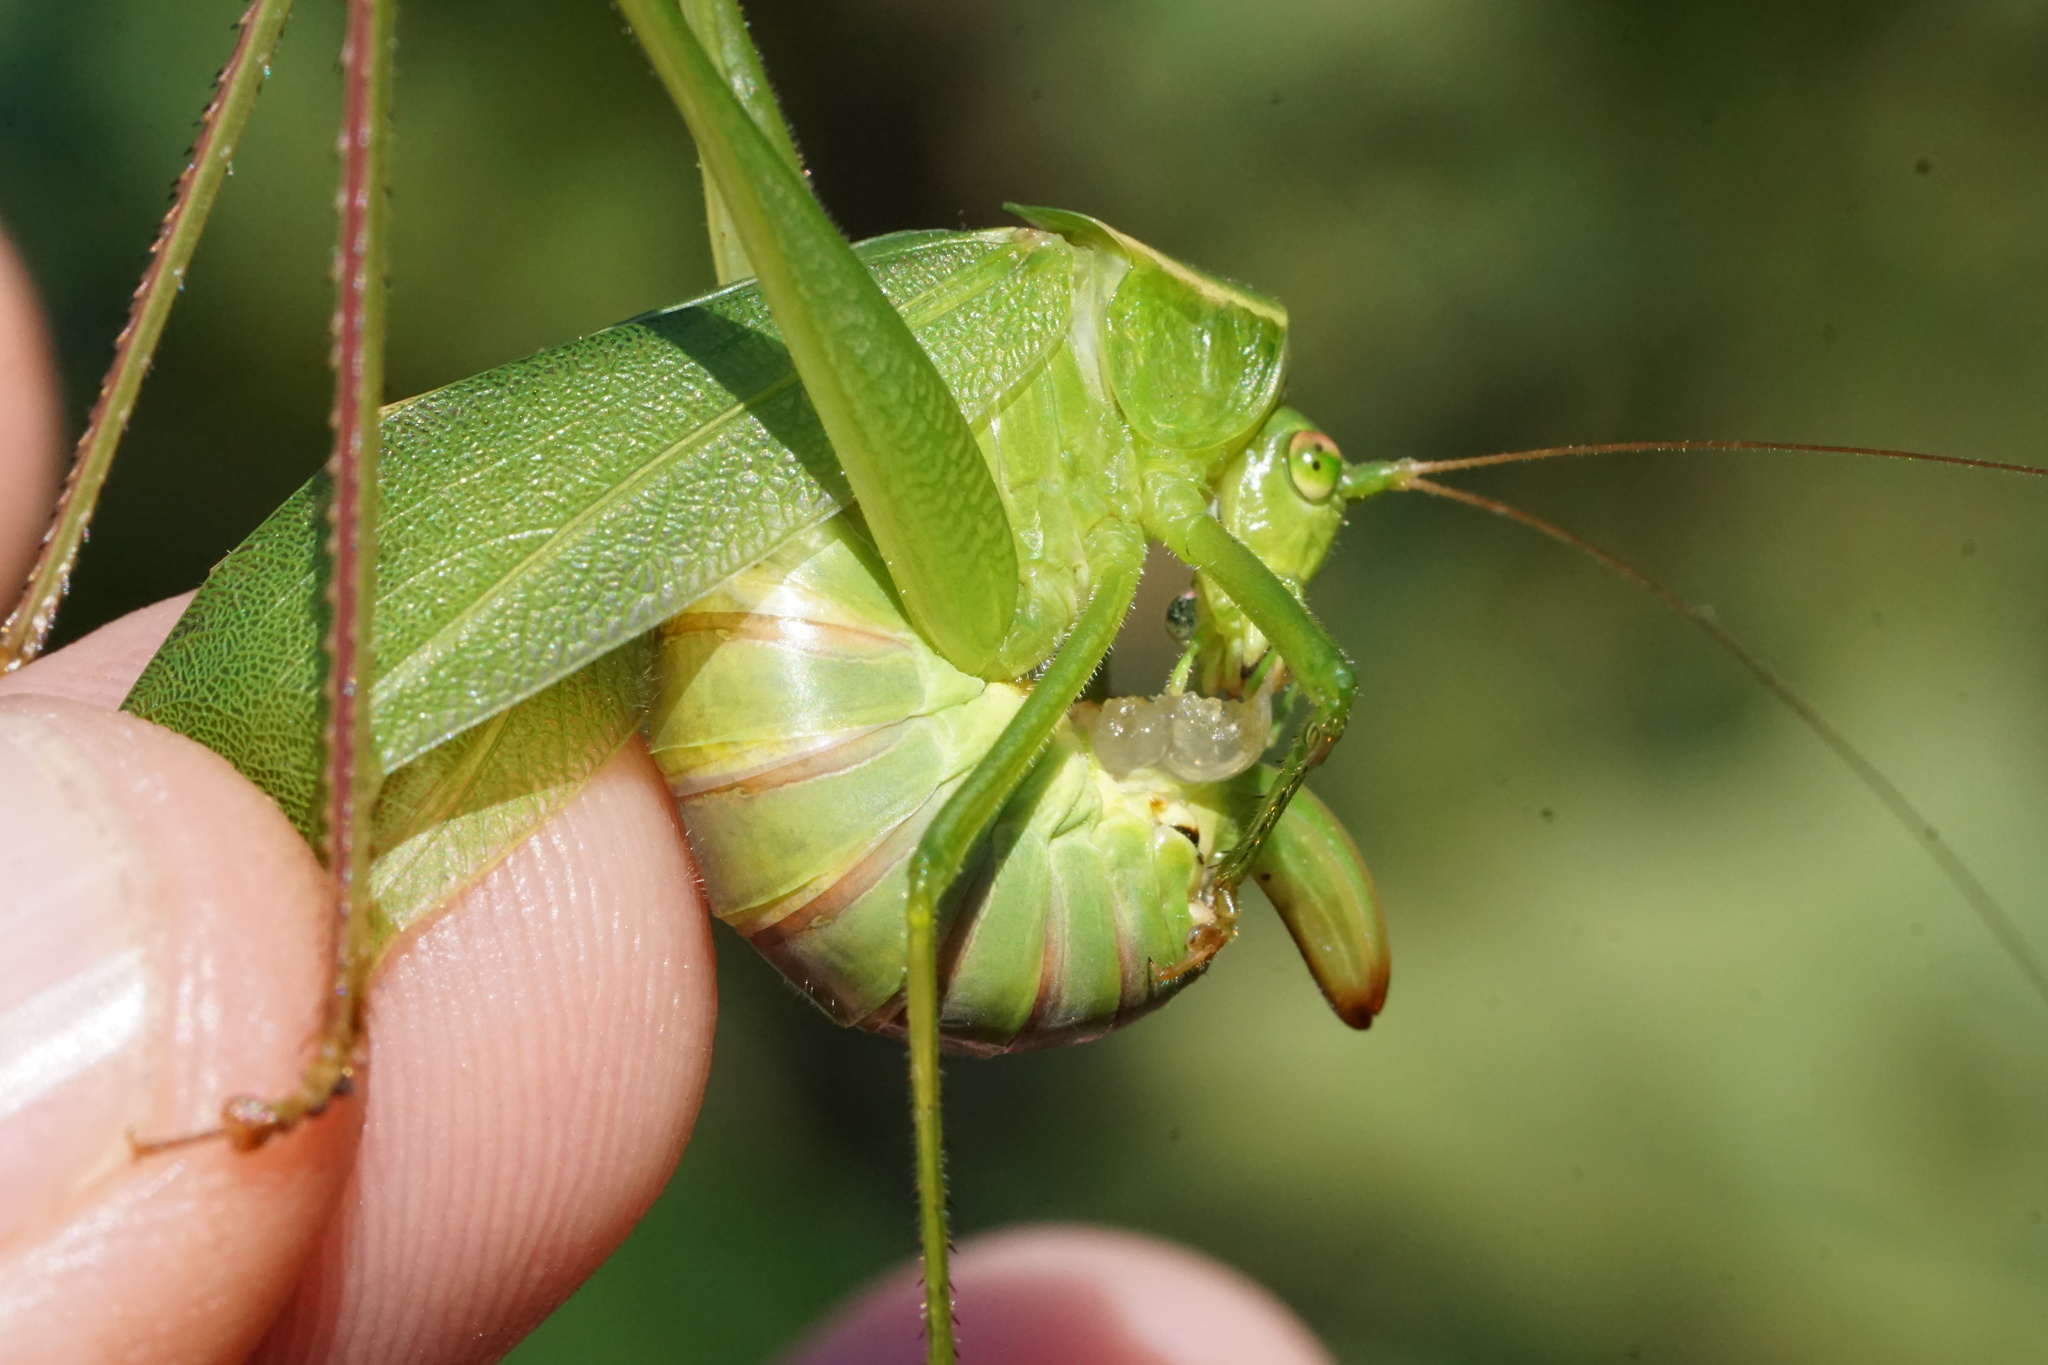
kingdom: Animalia
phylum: Arthropoda
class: Insecta
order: Orthoptera
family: Tettigoniidae
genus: Scudderia
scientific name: Scudderia curvicauda
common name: Curve-tailed bush katydid
